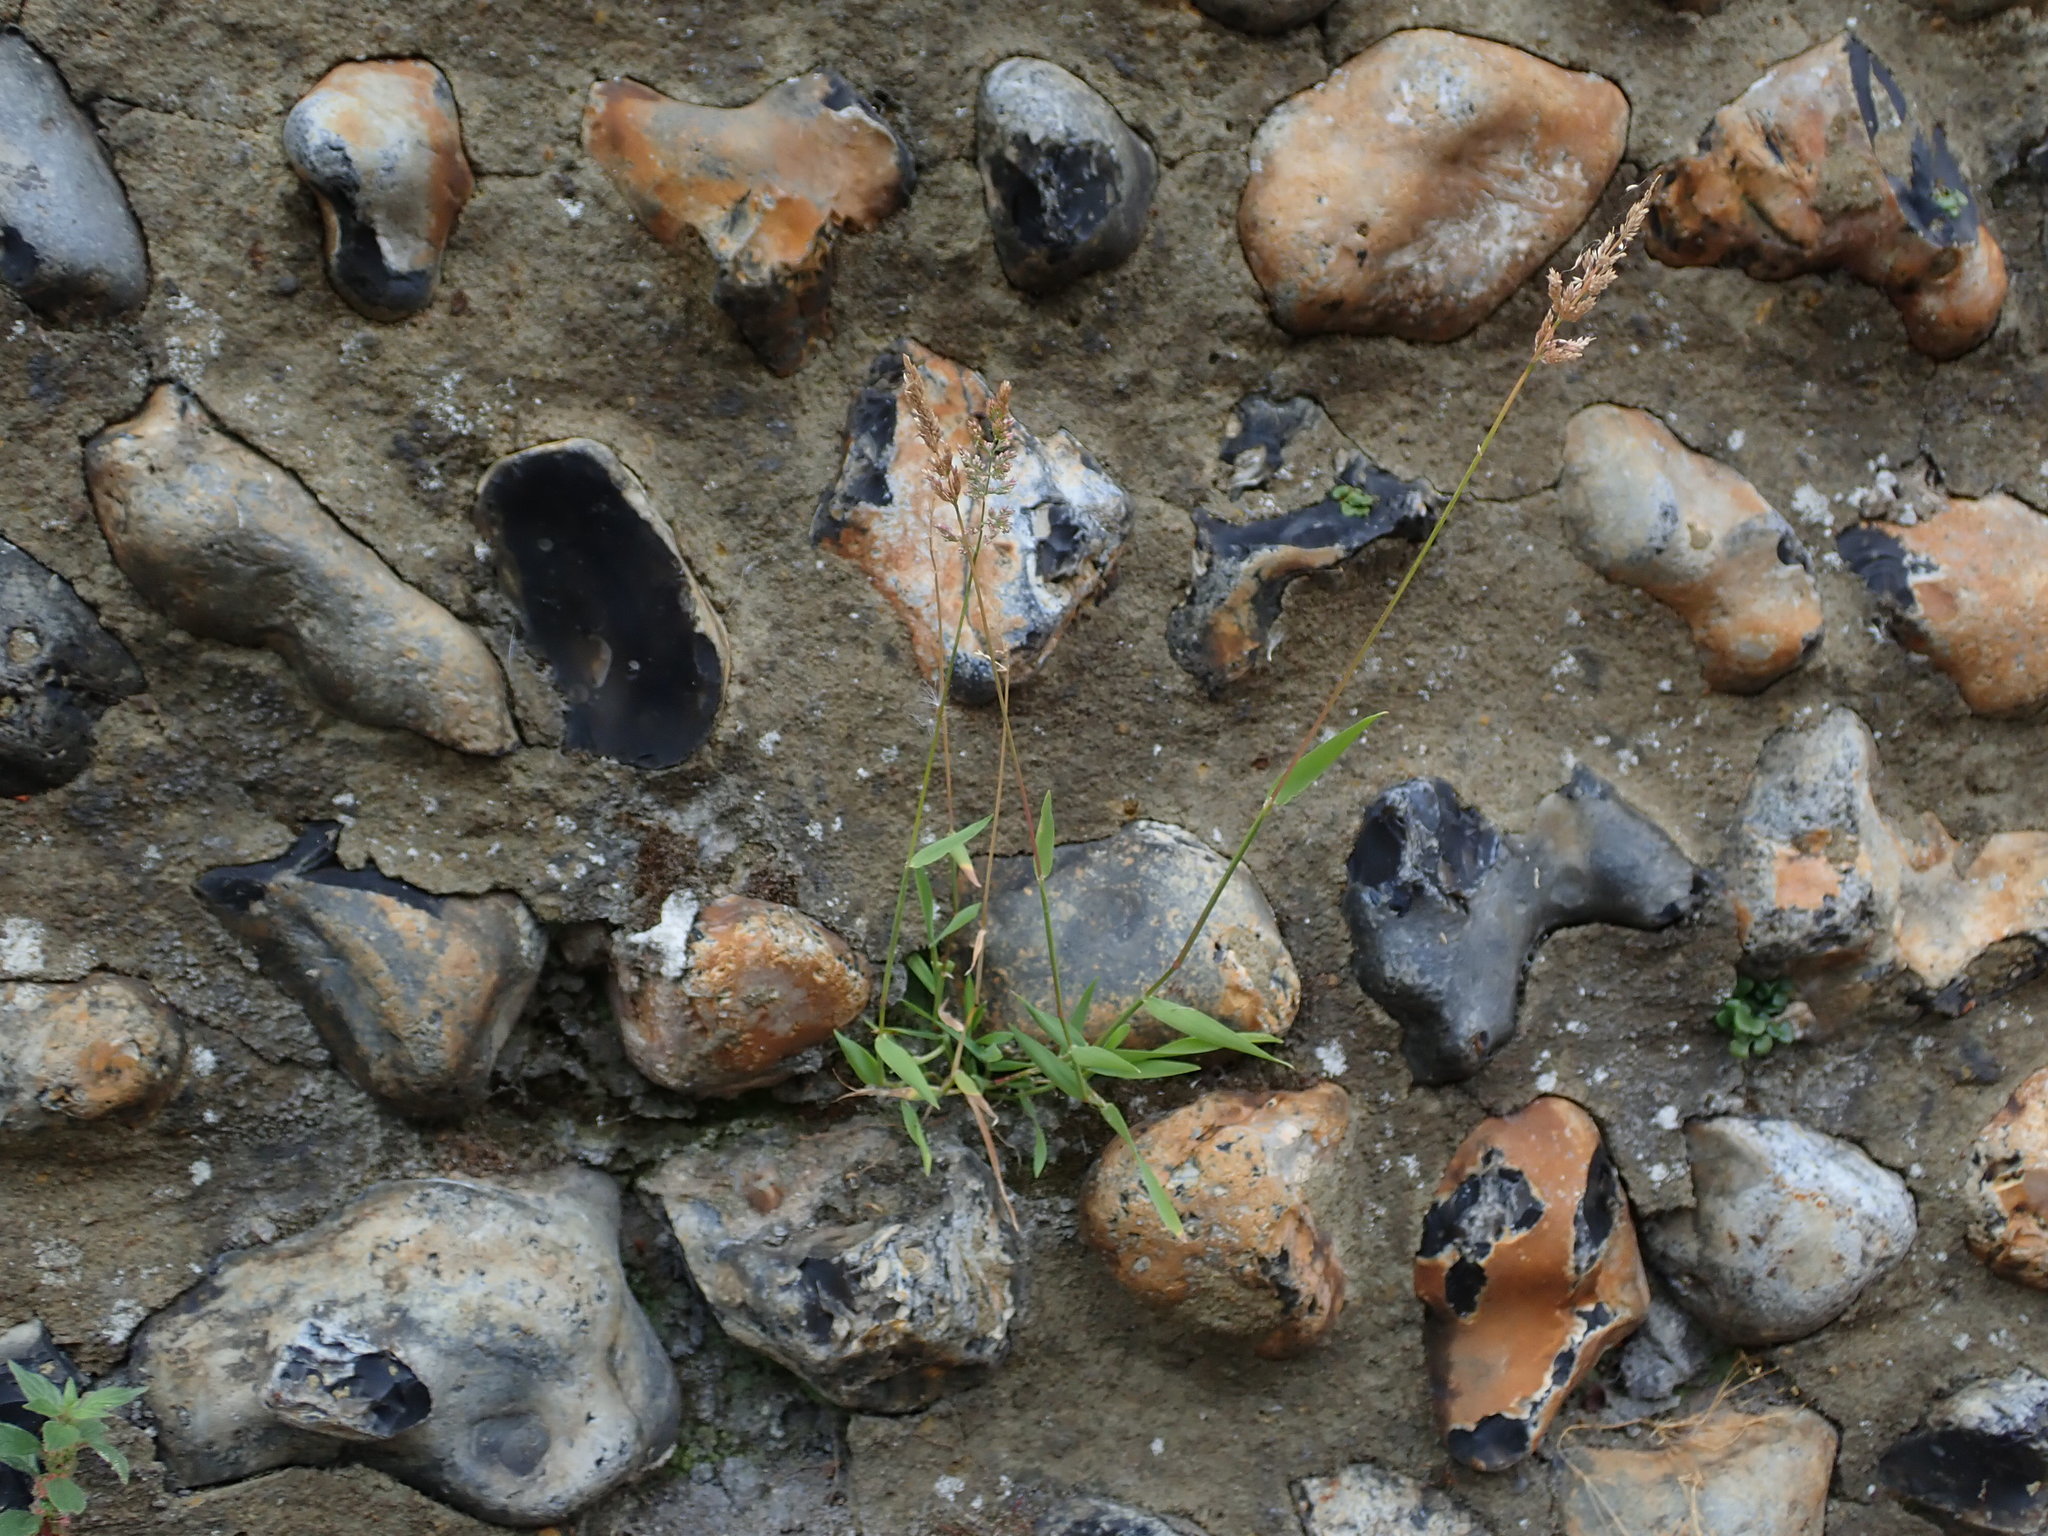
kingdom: Plantae
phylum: Tracheophyta
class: Liliopsida
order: Poales
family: Poaceae
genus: Polypogon
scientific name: Polypogon viridis
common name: Water bent
